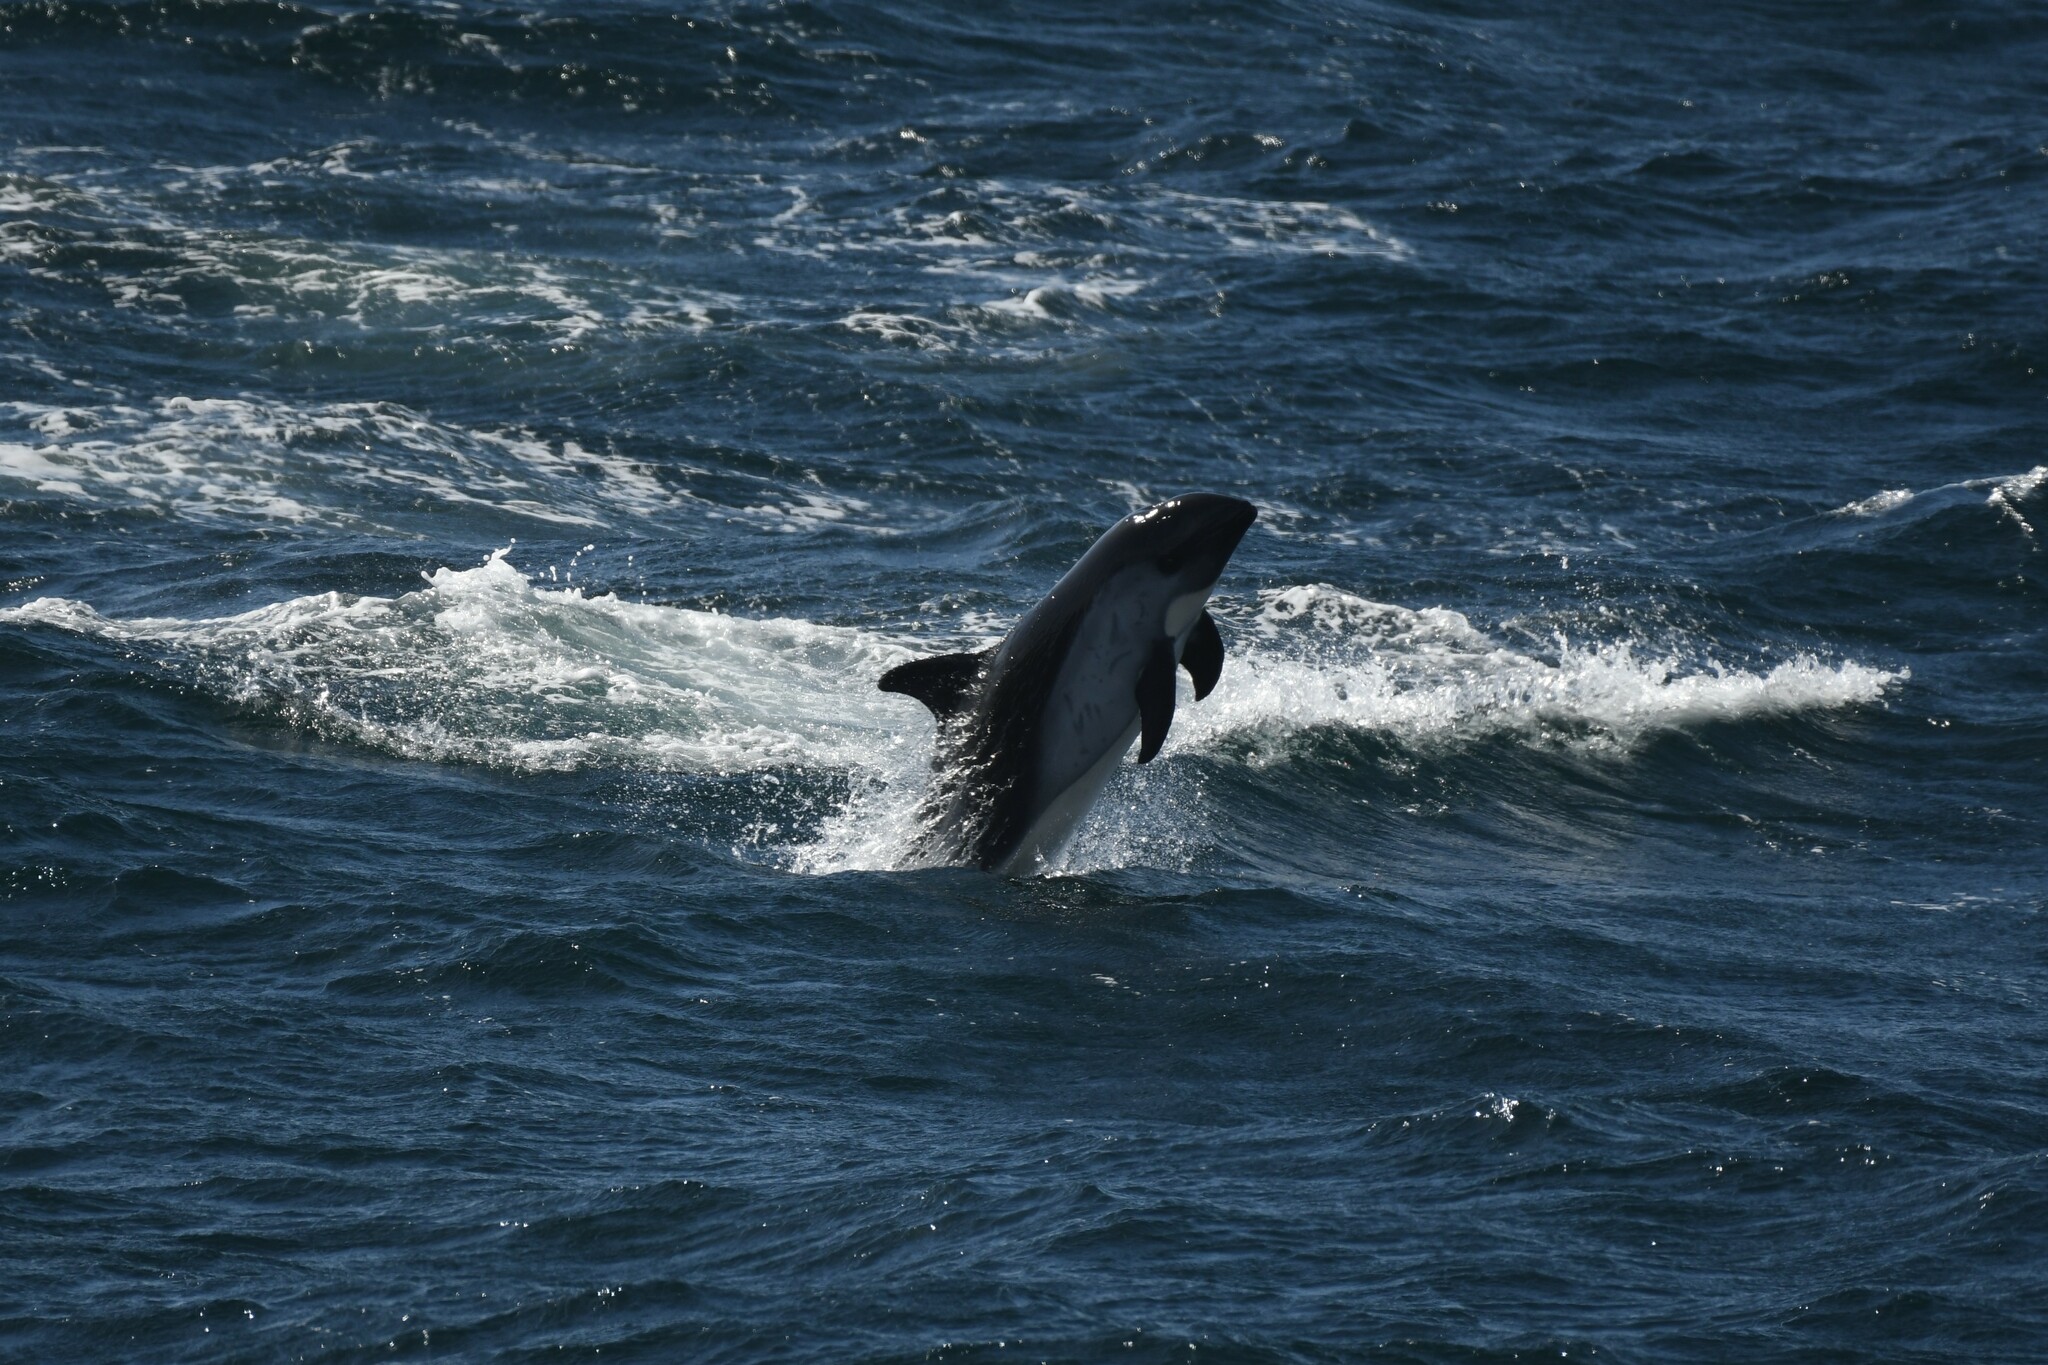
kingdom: Animalia
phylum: Chordata
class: Mammalia
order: Cetacea
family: Delphinidae
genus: Lagenorhynchus
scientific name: Lagenorhynchus australis
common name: Peale's dolphin
